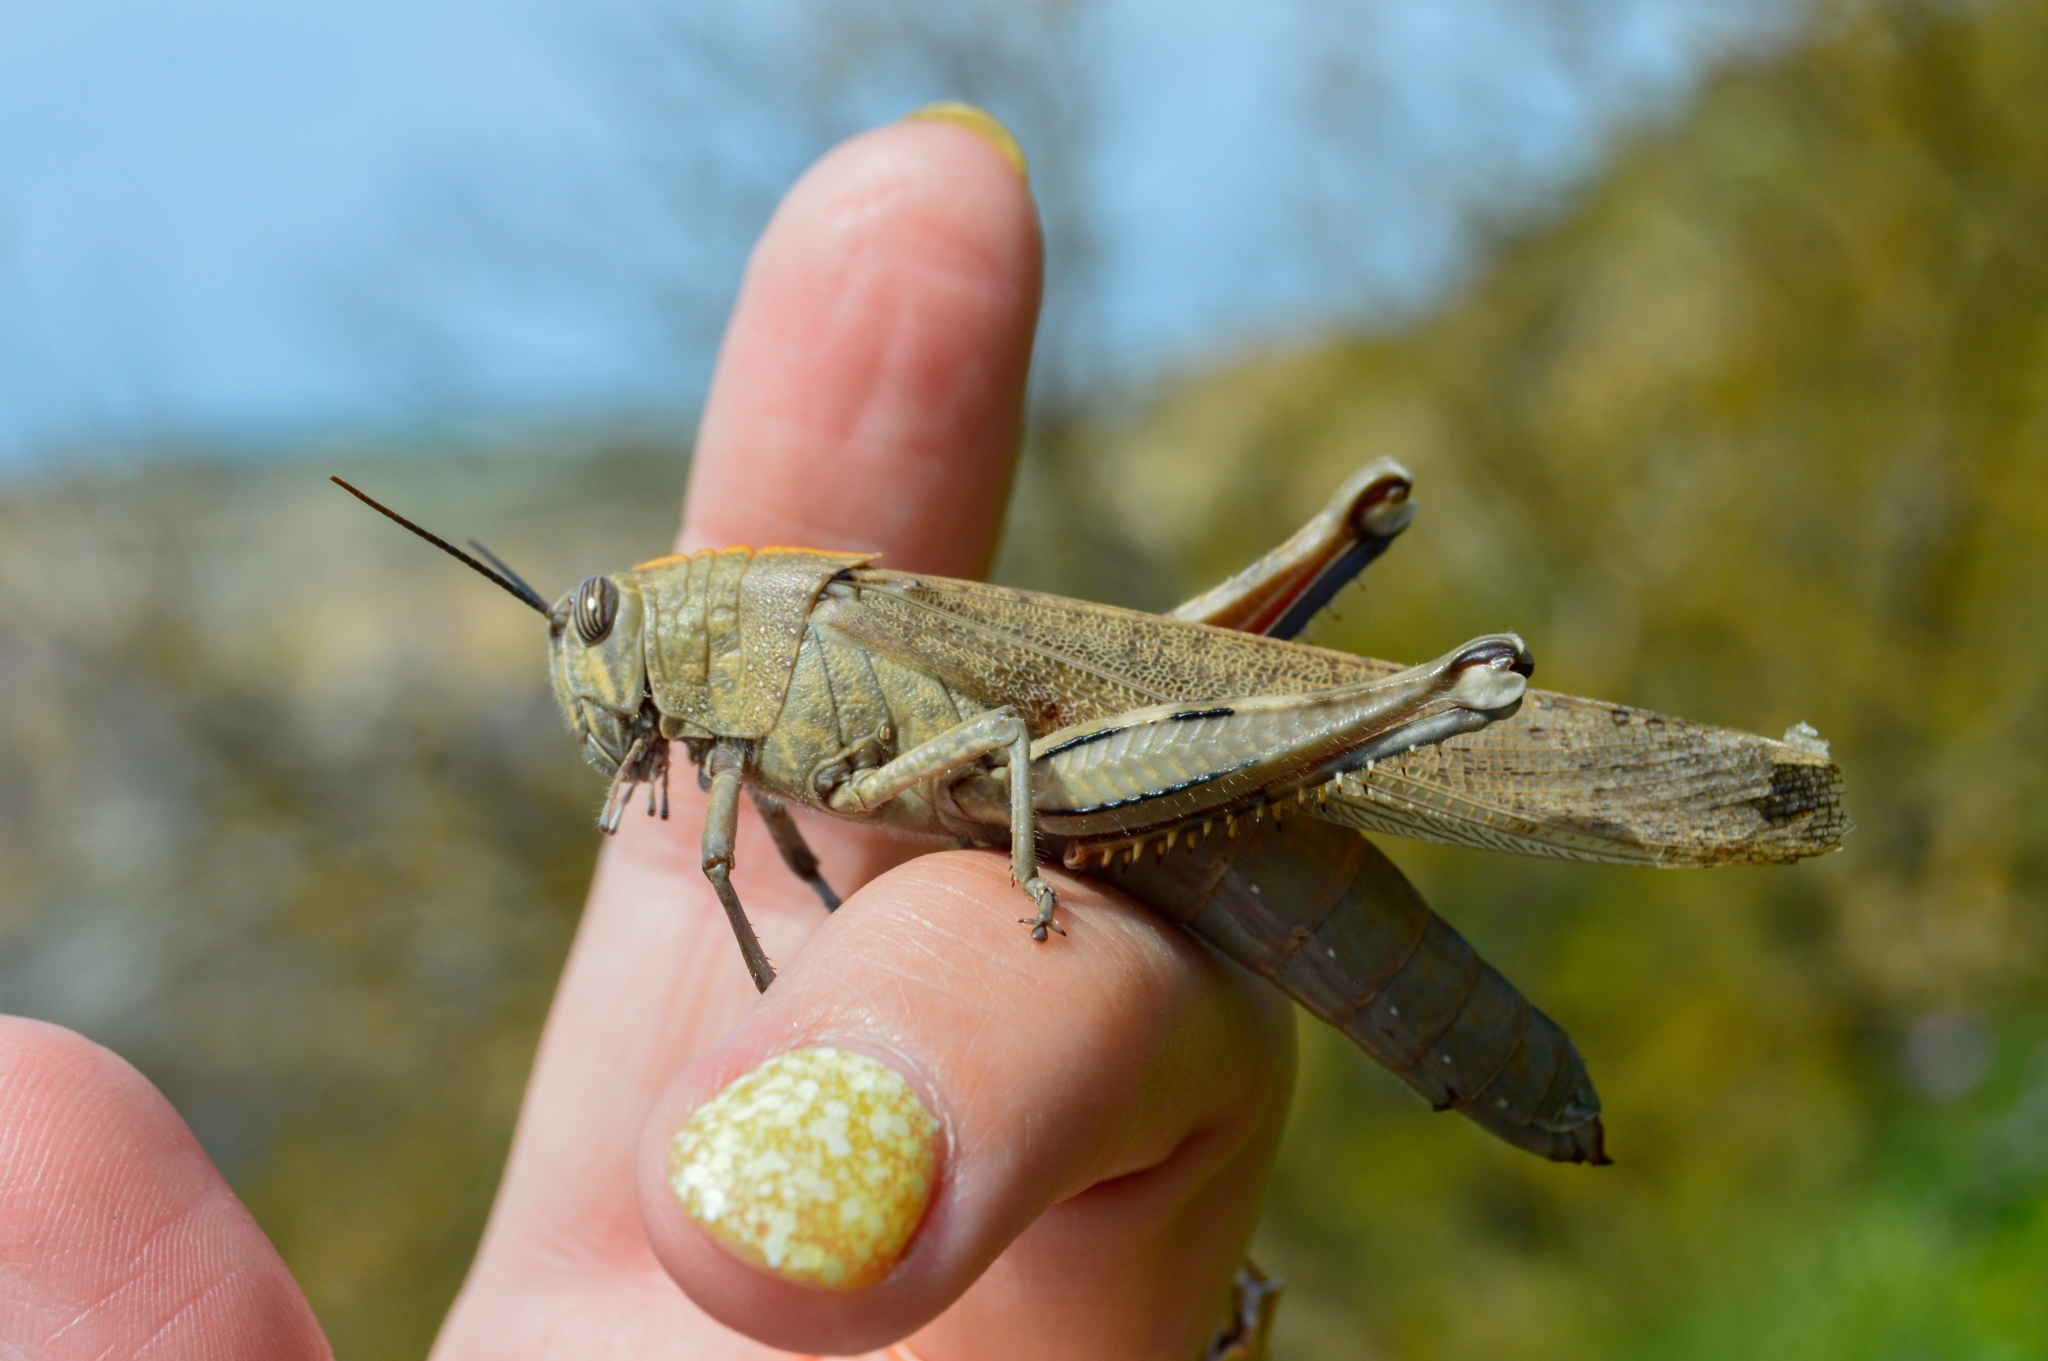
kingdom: Animalia
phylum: Arthropoda
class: Insecta
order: Orthoptera
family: Acrididae
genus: Anacridium
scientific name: Anacridium aegyptium
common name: Egyptian grasshopper
